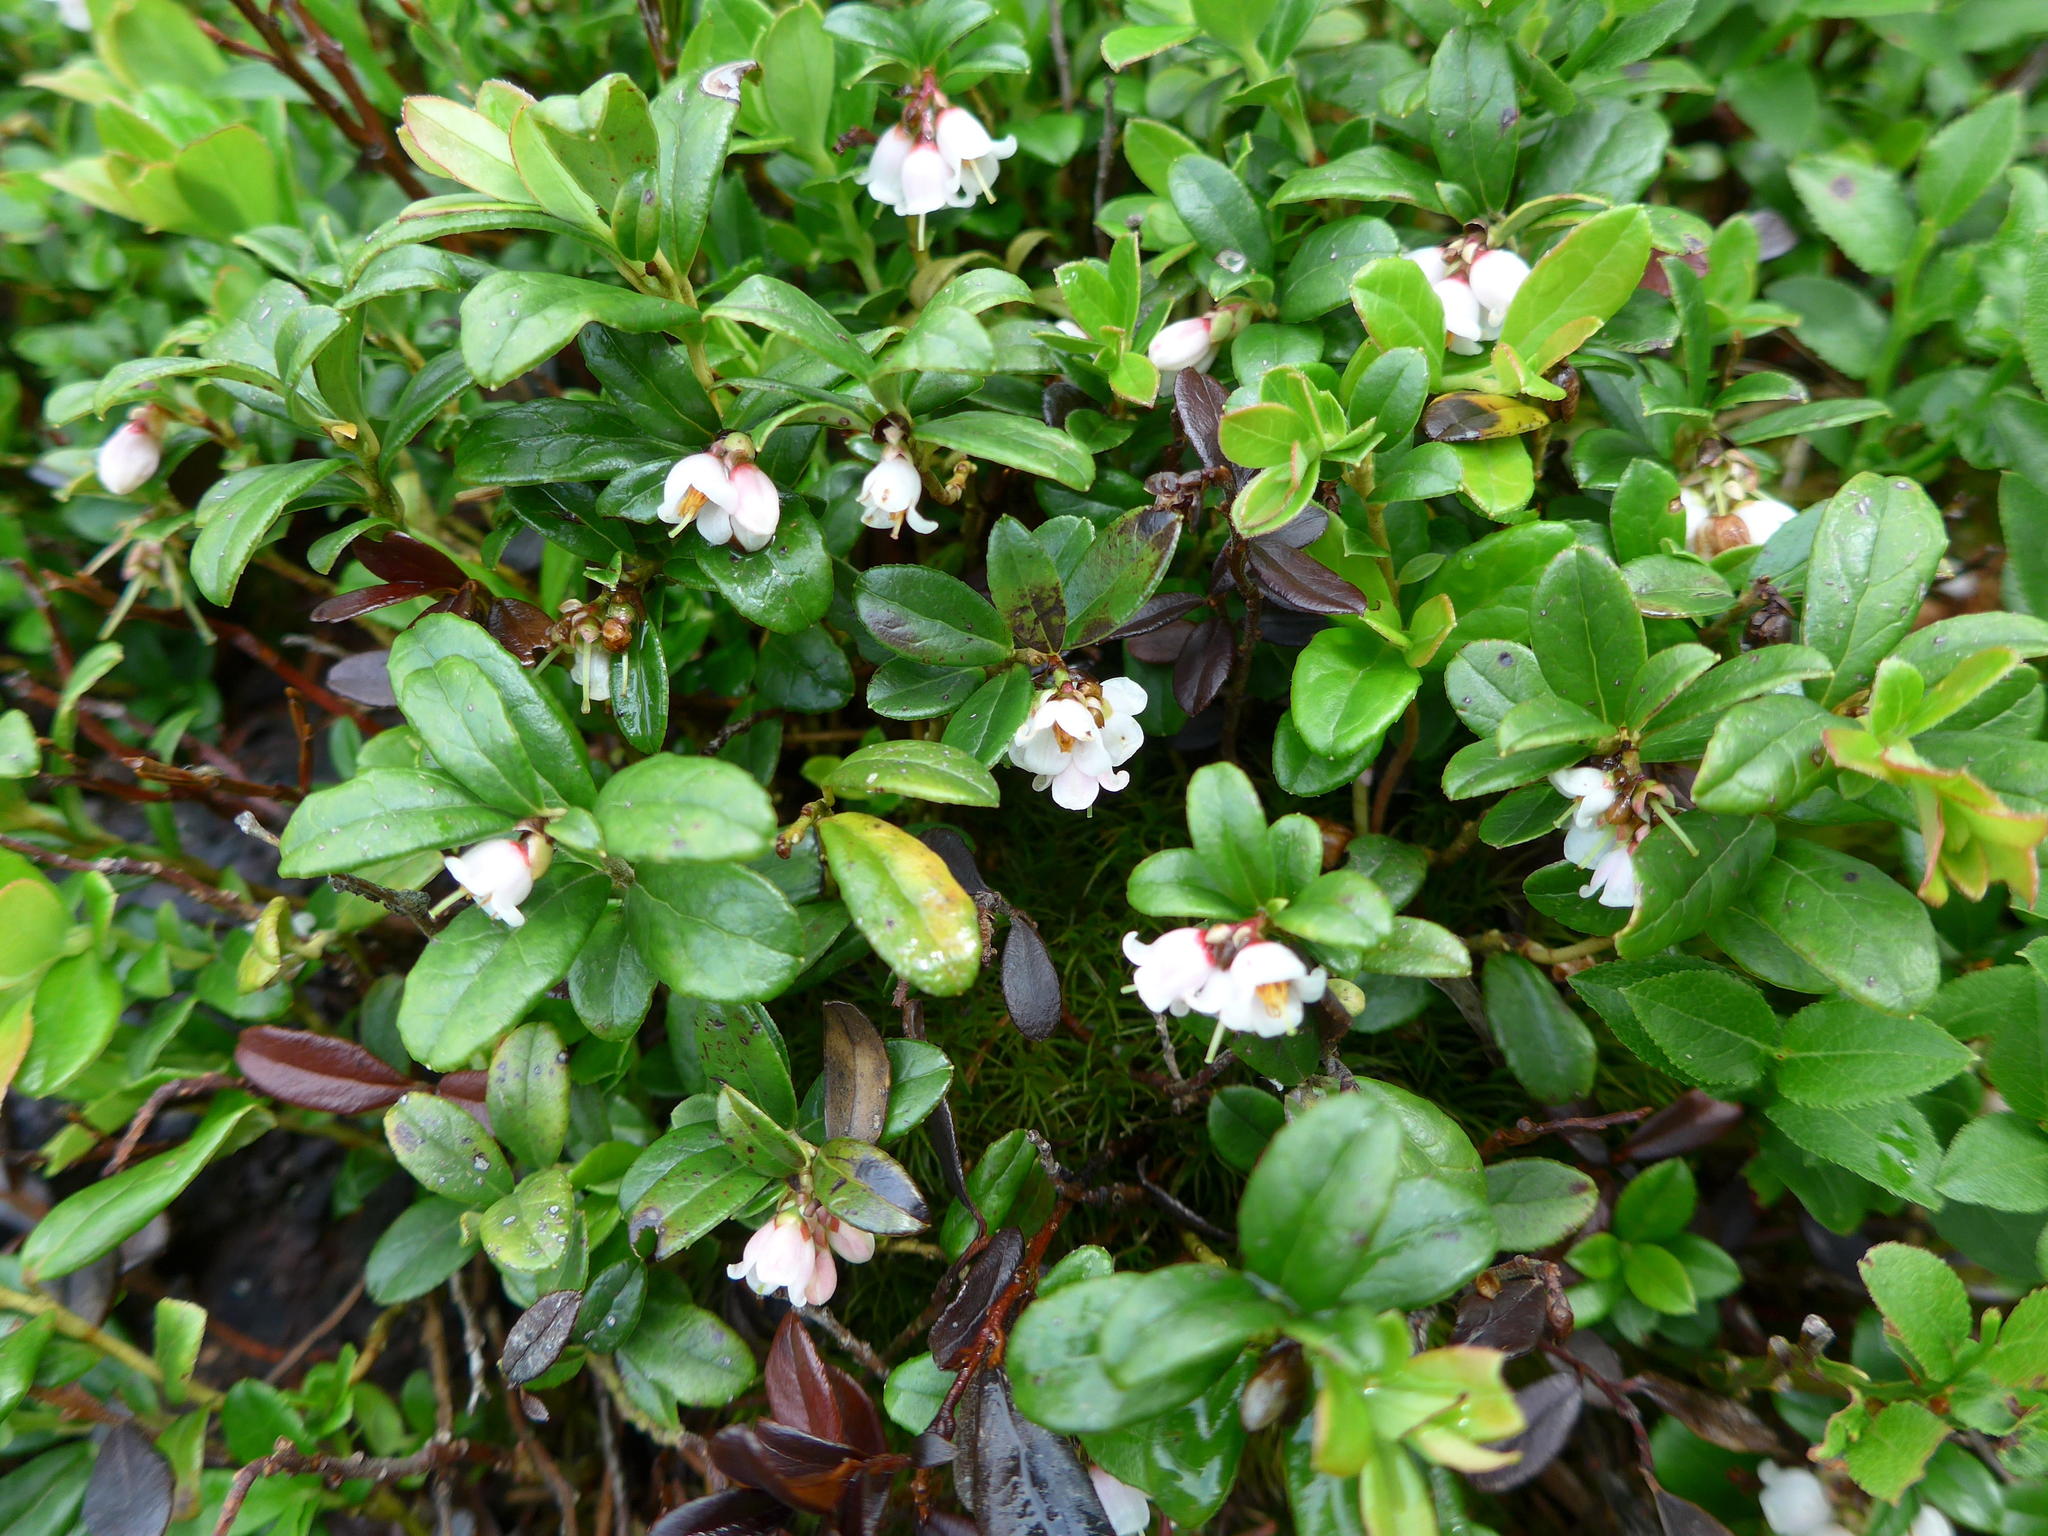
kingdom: Plantae
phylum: Tracheophyta
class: Magnoliopsida
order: Ericales
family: Ericaceae
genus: Vaccinium
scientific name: Vaccinium vitis-idaea
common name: Cowberry
